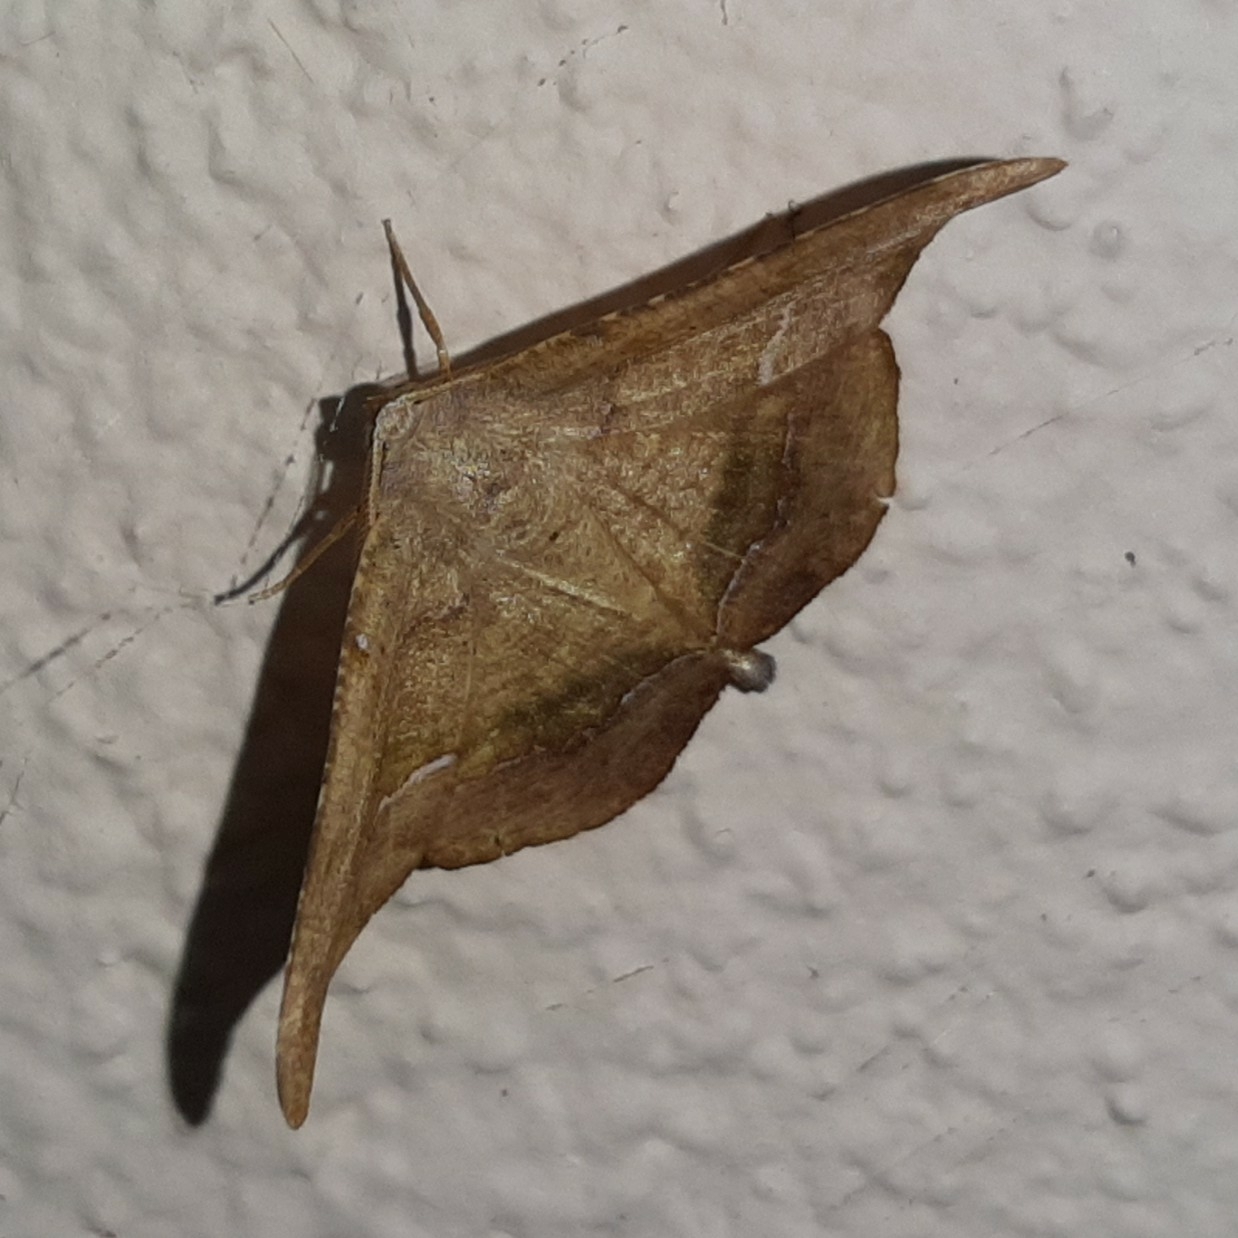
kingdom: Animalia
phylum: Arthropoda
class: Insecta
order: Lepidoptera
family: Geometridae
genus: Patalene
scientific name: Patalene falcularia
